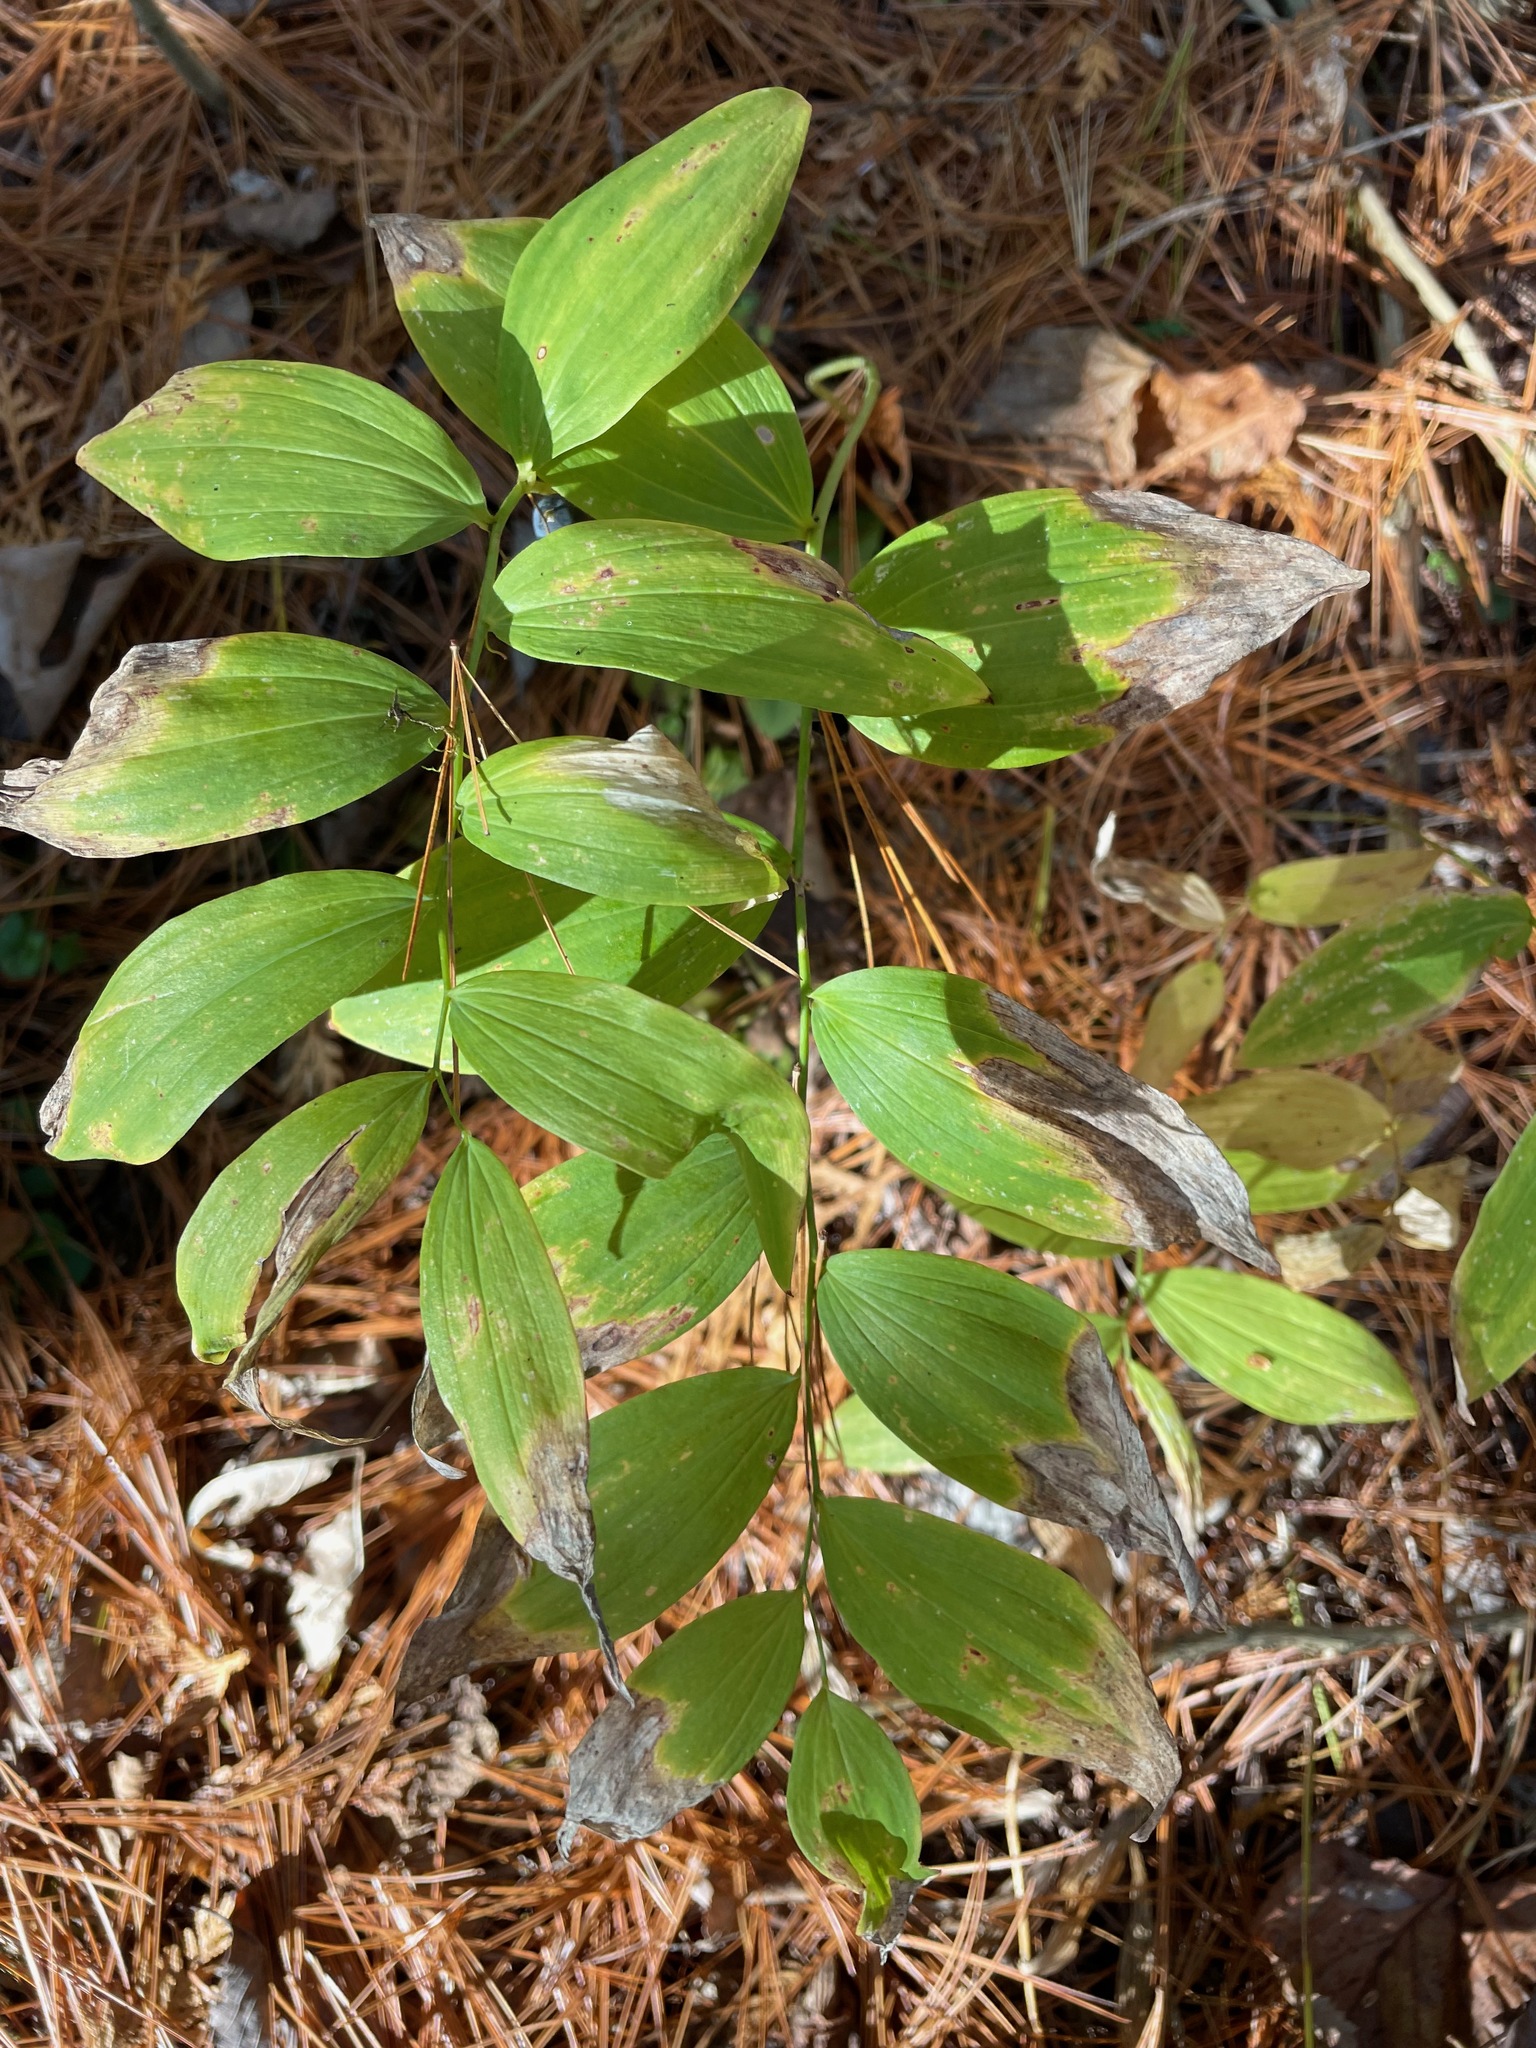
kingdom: Plantae
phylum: Tracheophyta
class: Liliopsida
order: Asparagales
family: Asparagaceae
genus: Polygonatum
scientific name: Polygonatum pubescens
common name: Downy solomon's seal
